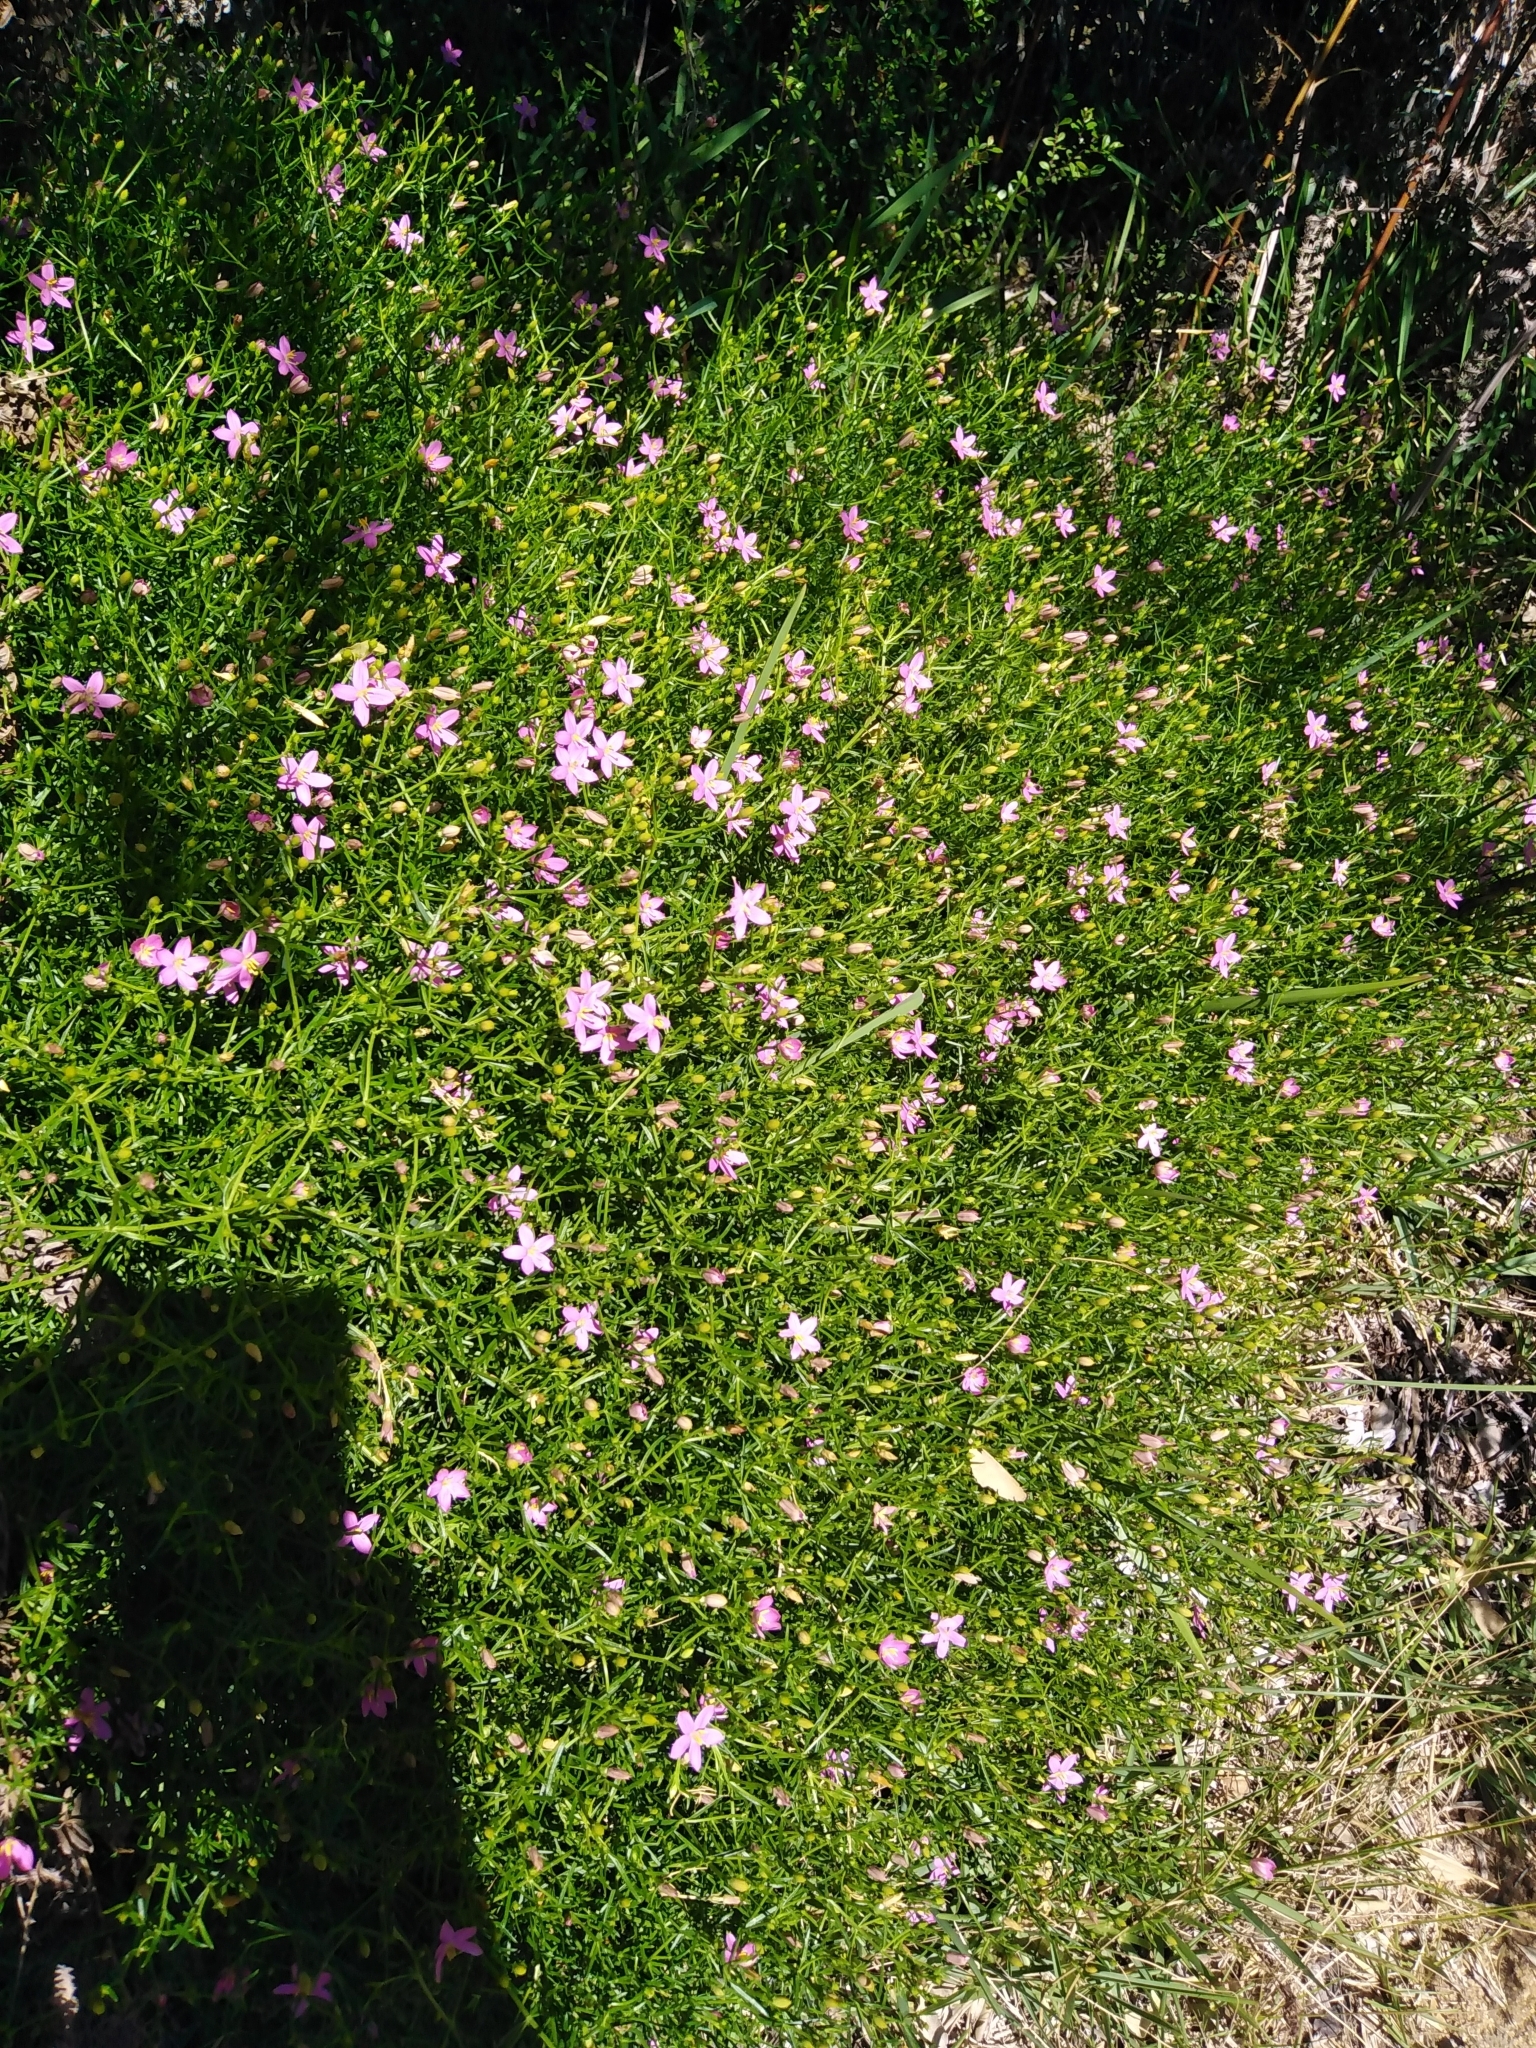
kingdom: Plantae
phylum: Tracheophyta
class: Magnoliopsida
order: Gentianales
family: Gentianaceae
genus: Chironia
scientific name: Chironia baccifera
